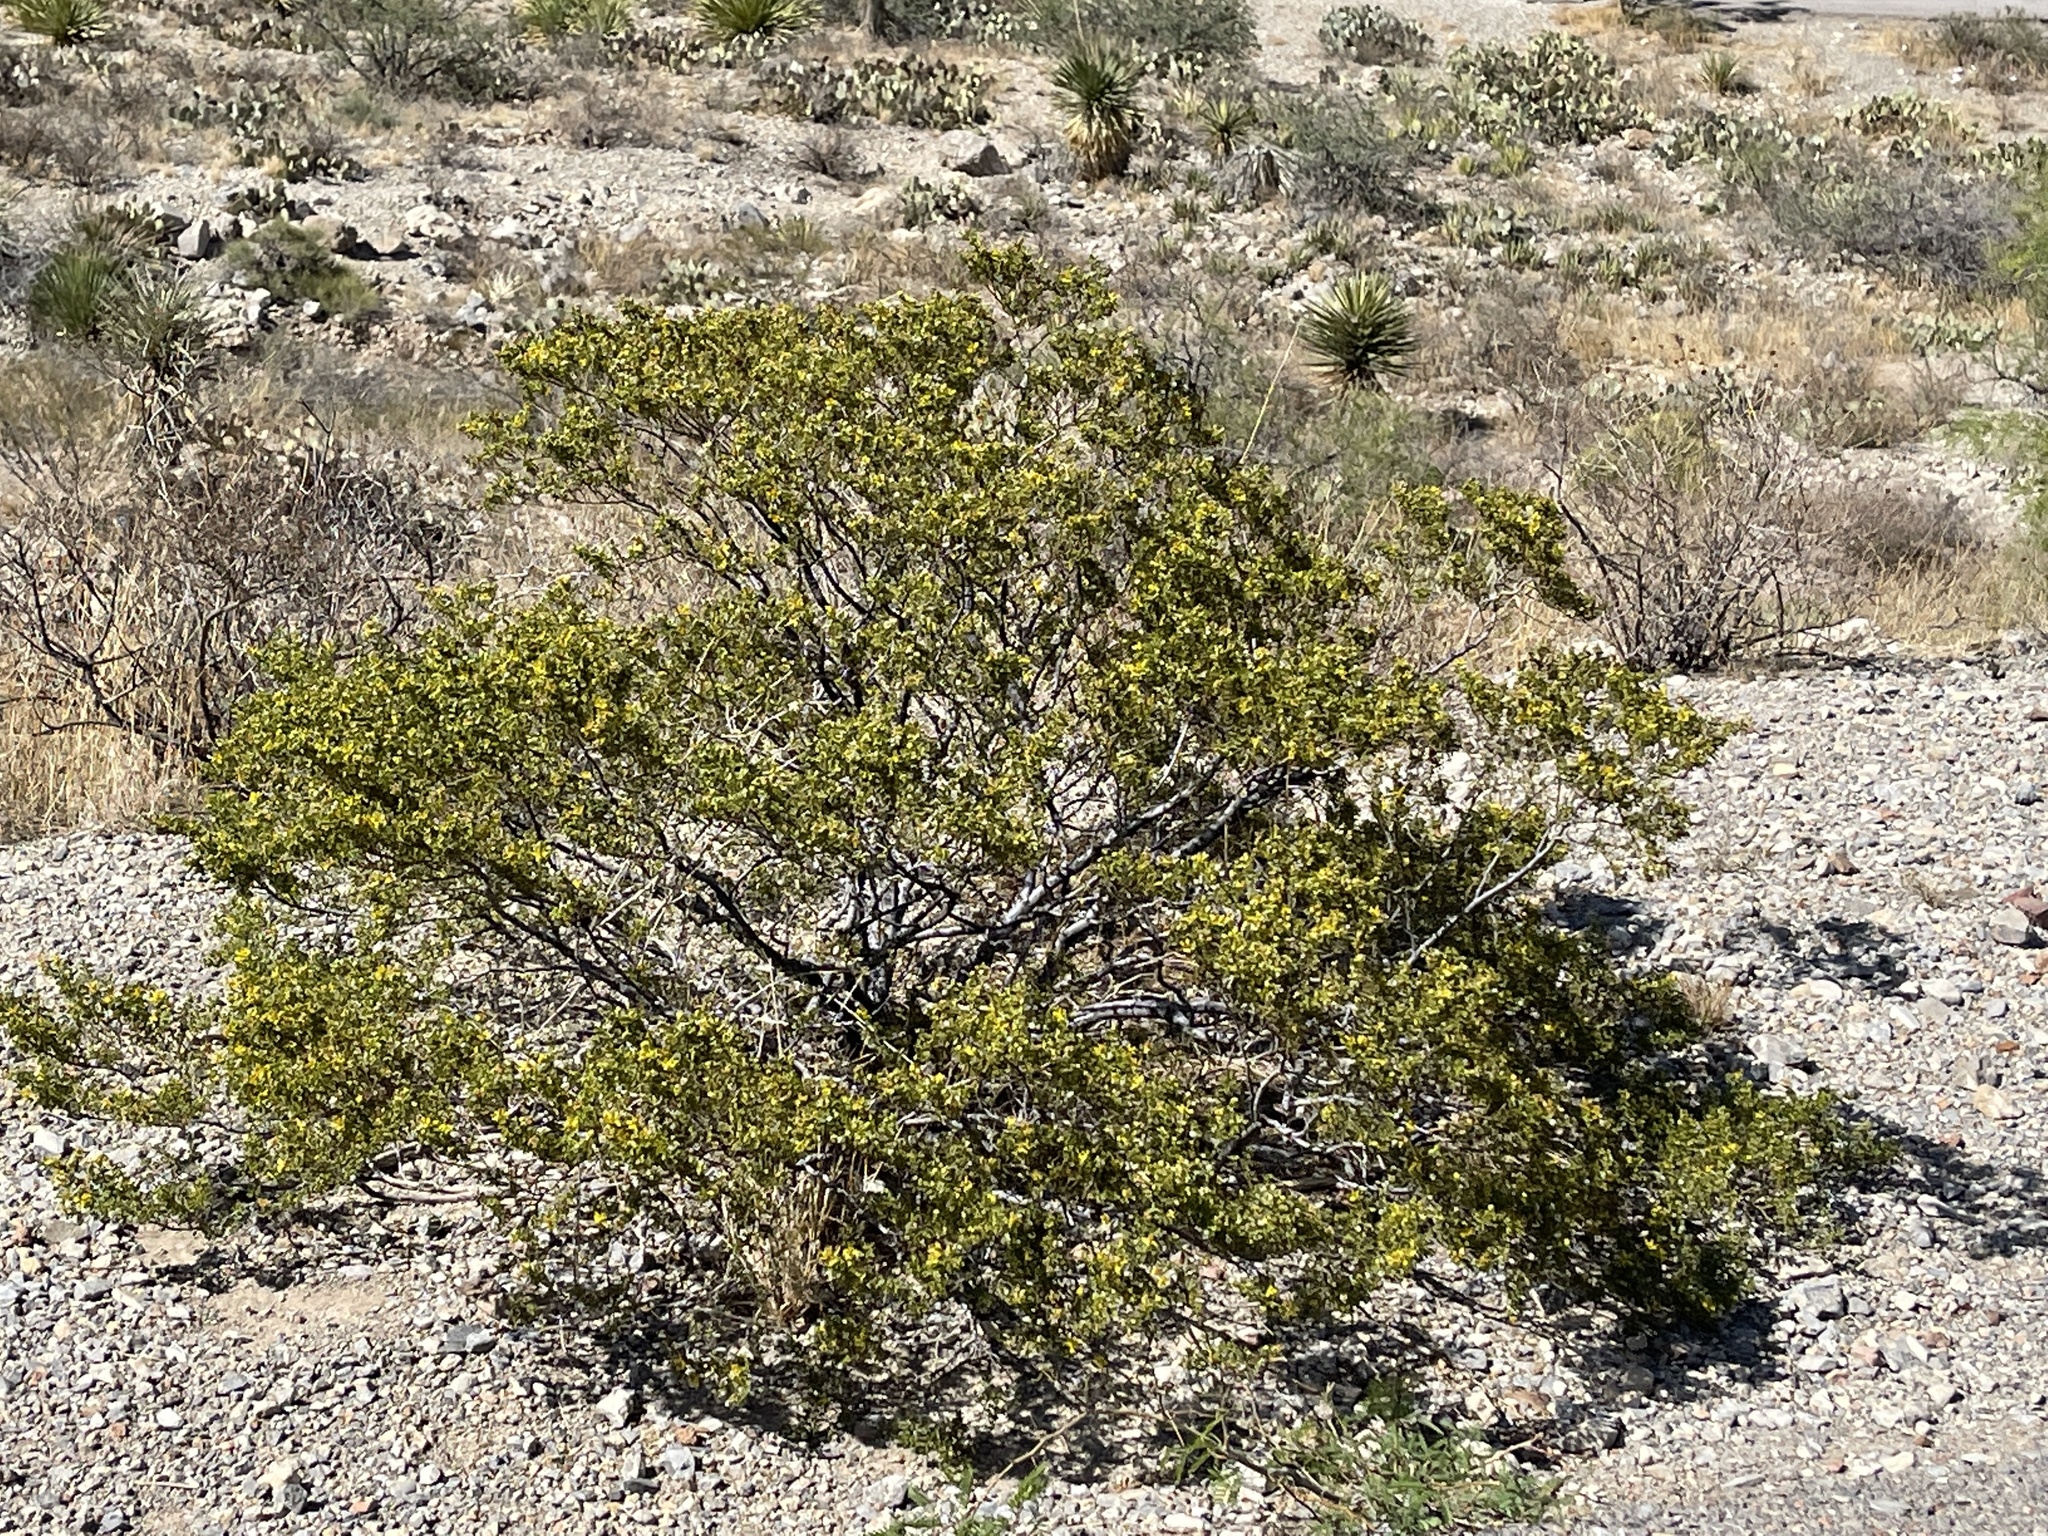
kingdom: Plantae
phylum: Tracheophyta
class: Magnoliopsida
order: Zygophyllales
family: Zygophyllaceae
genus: Larrea
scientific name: Larrea tridentata
